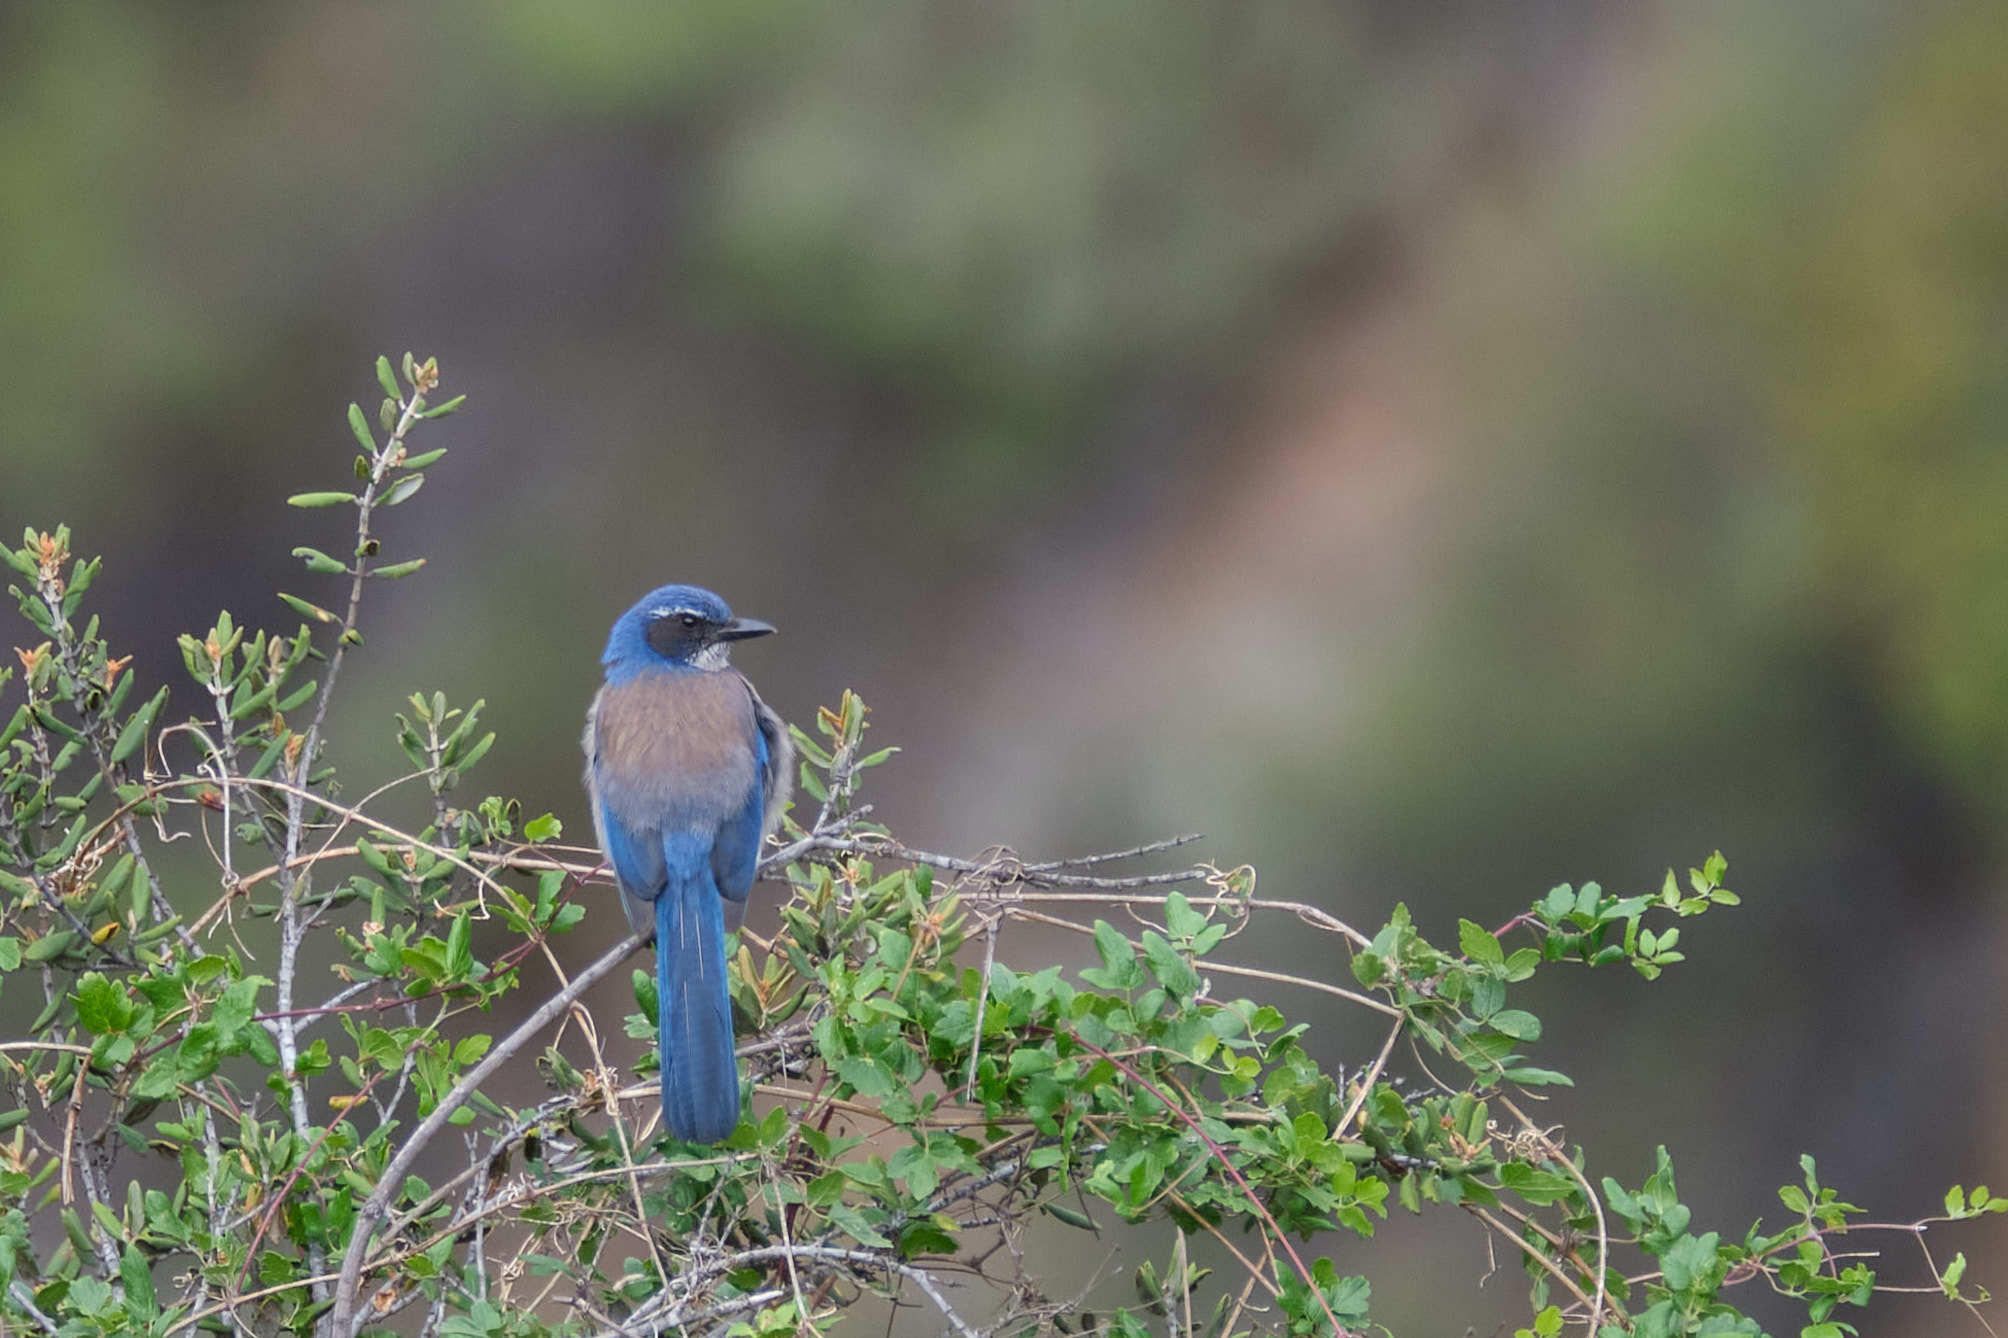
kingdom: Animalia
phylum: Chordata
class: Aves
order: Passeriformes
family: Corvidae
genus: Aphelocoma
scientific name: Aphelocoma californica
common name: California scrub-jay
